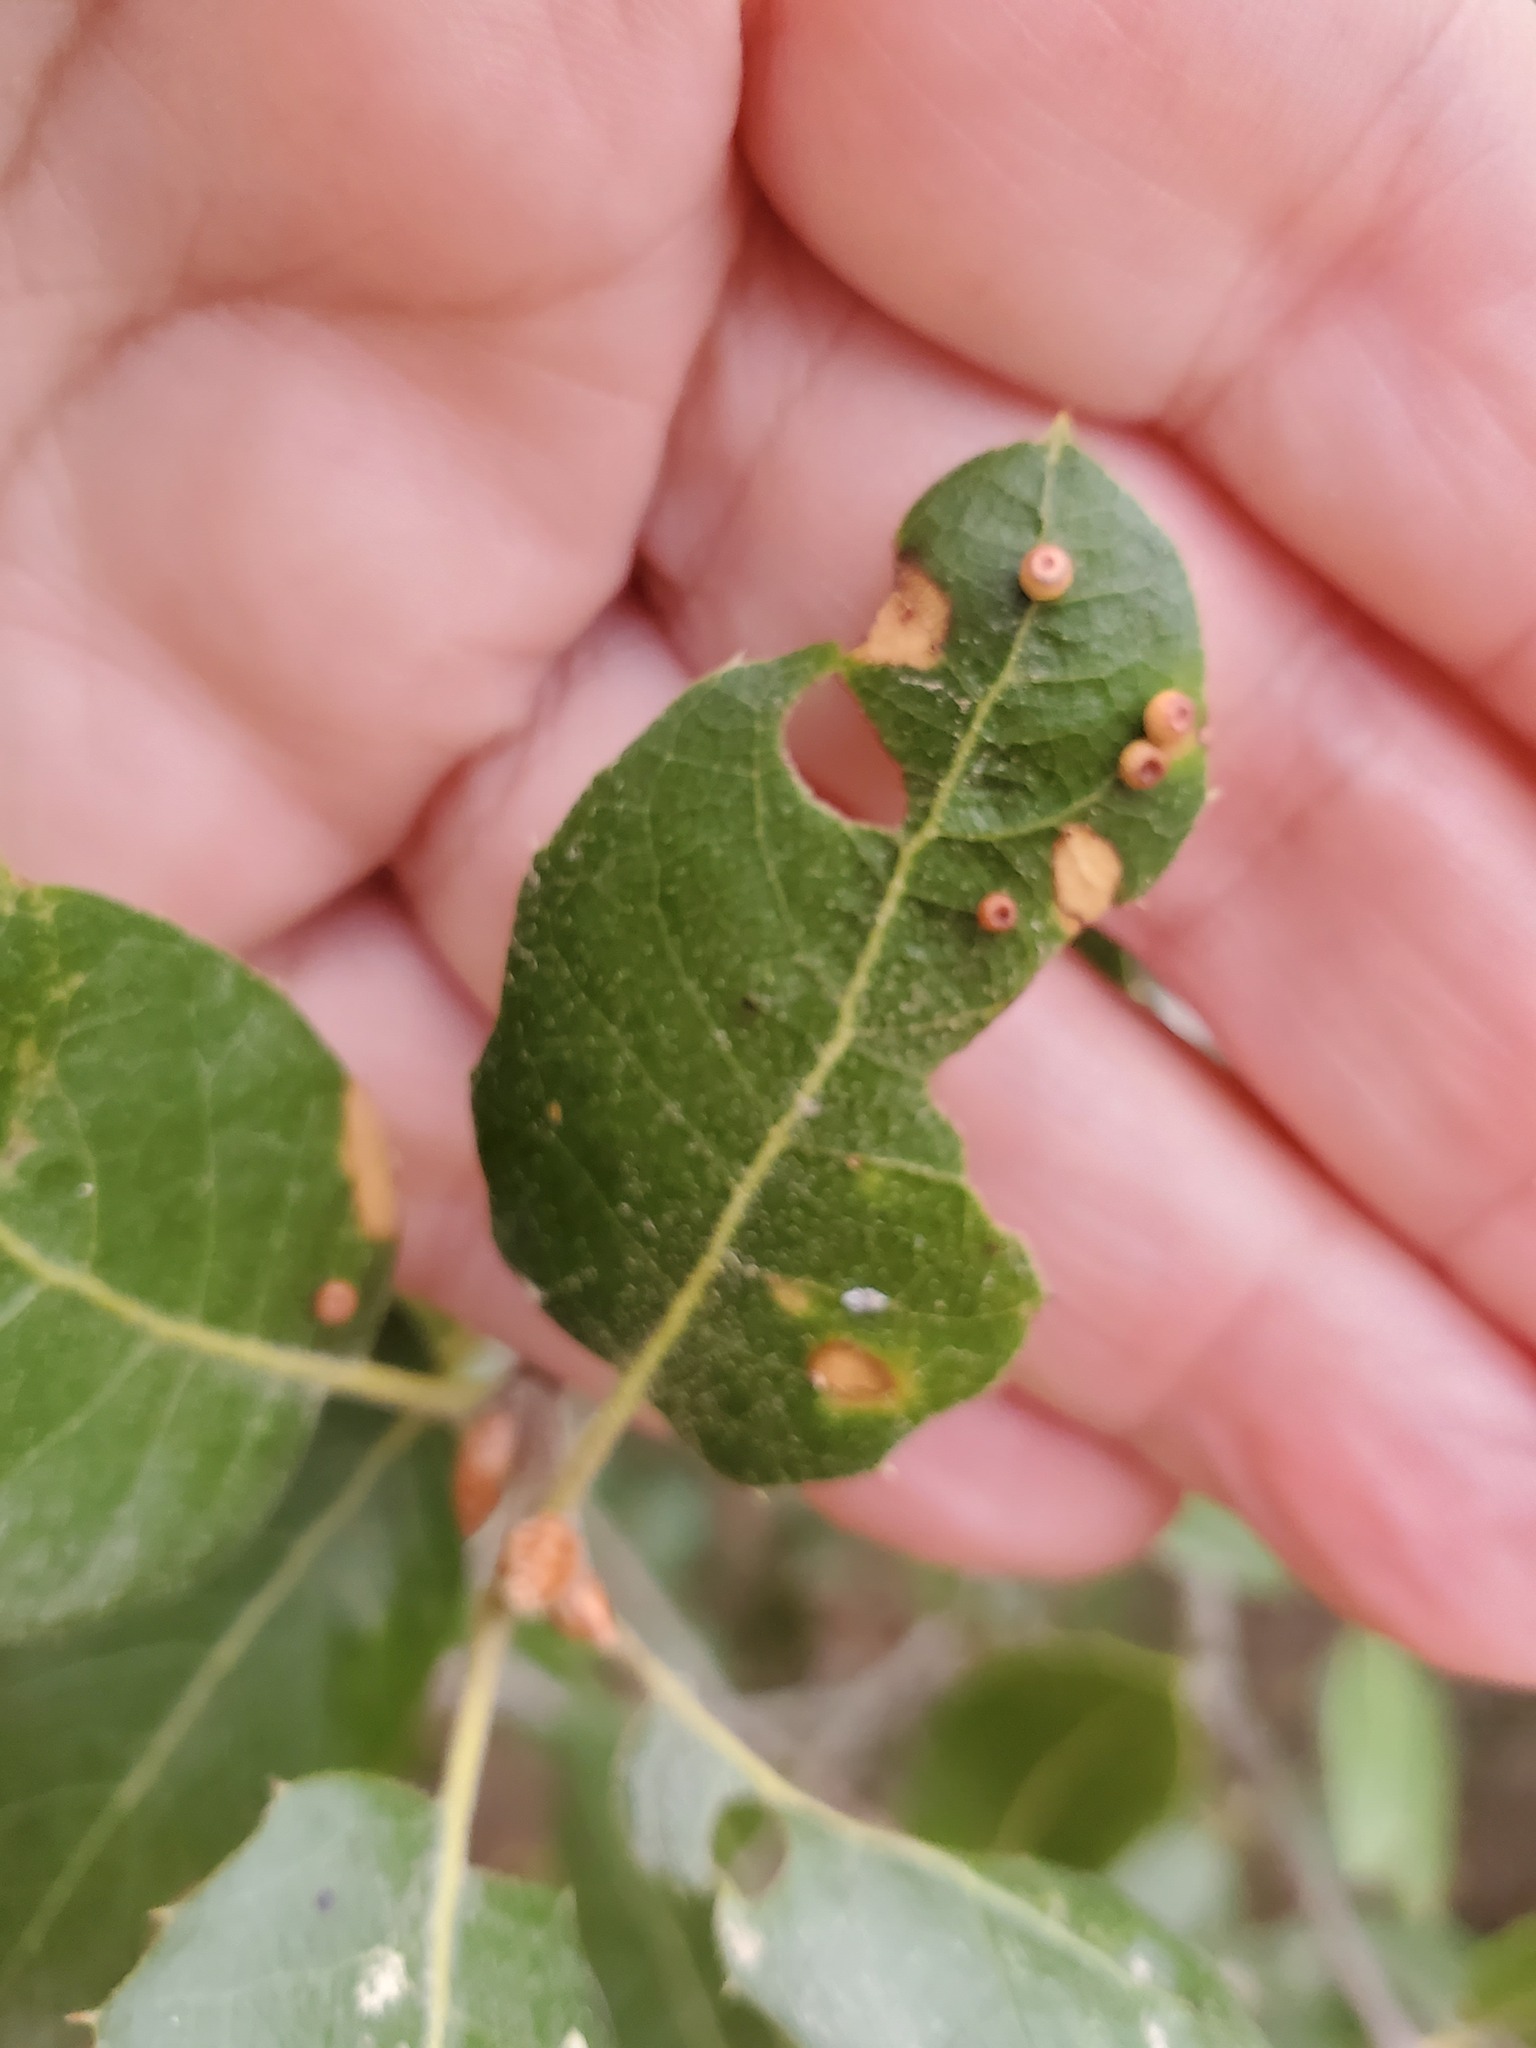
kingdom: Animalia
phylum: Arthropoda
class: Insecta
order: Hymenoptera
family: Cynipidae
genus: Dryocosmus
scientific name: Dryocosmus
